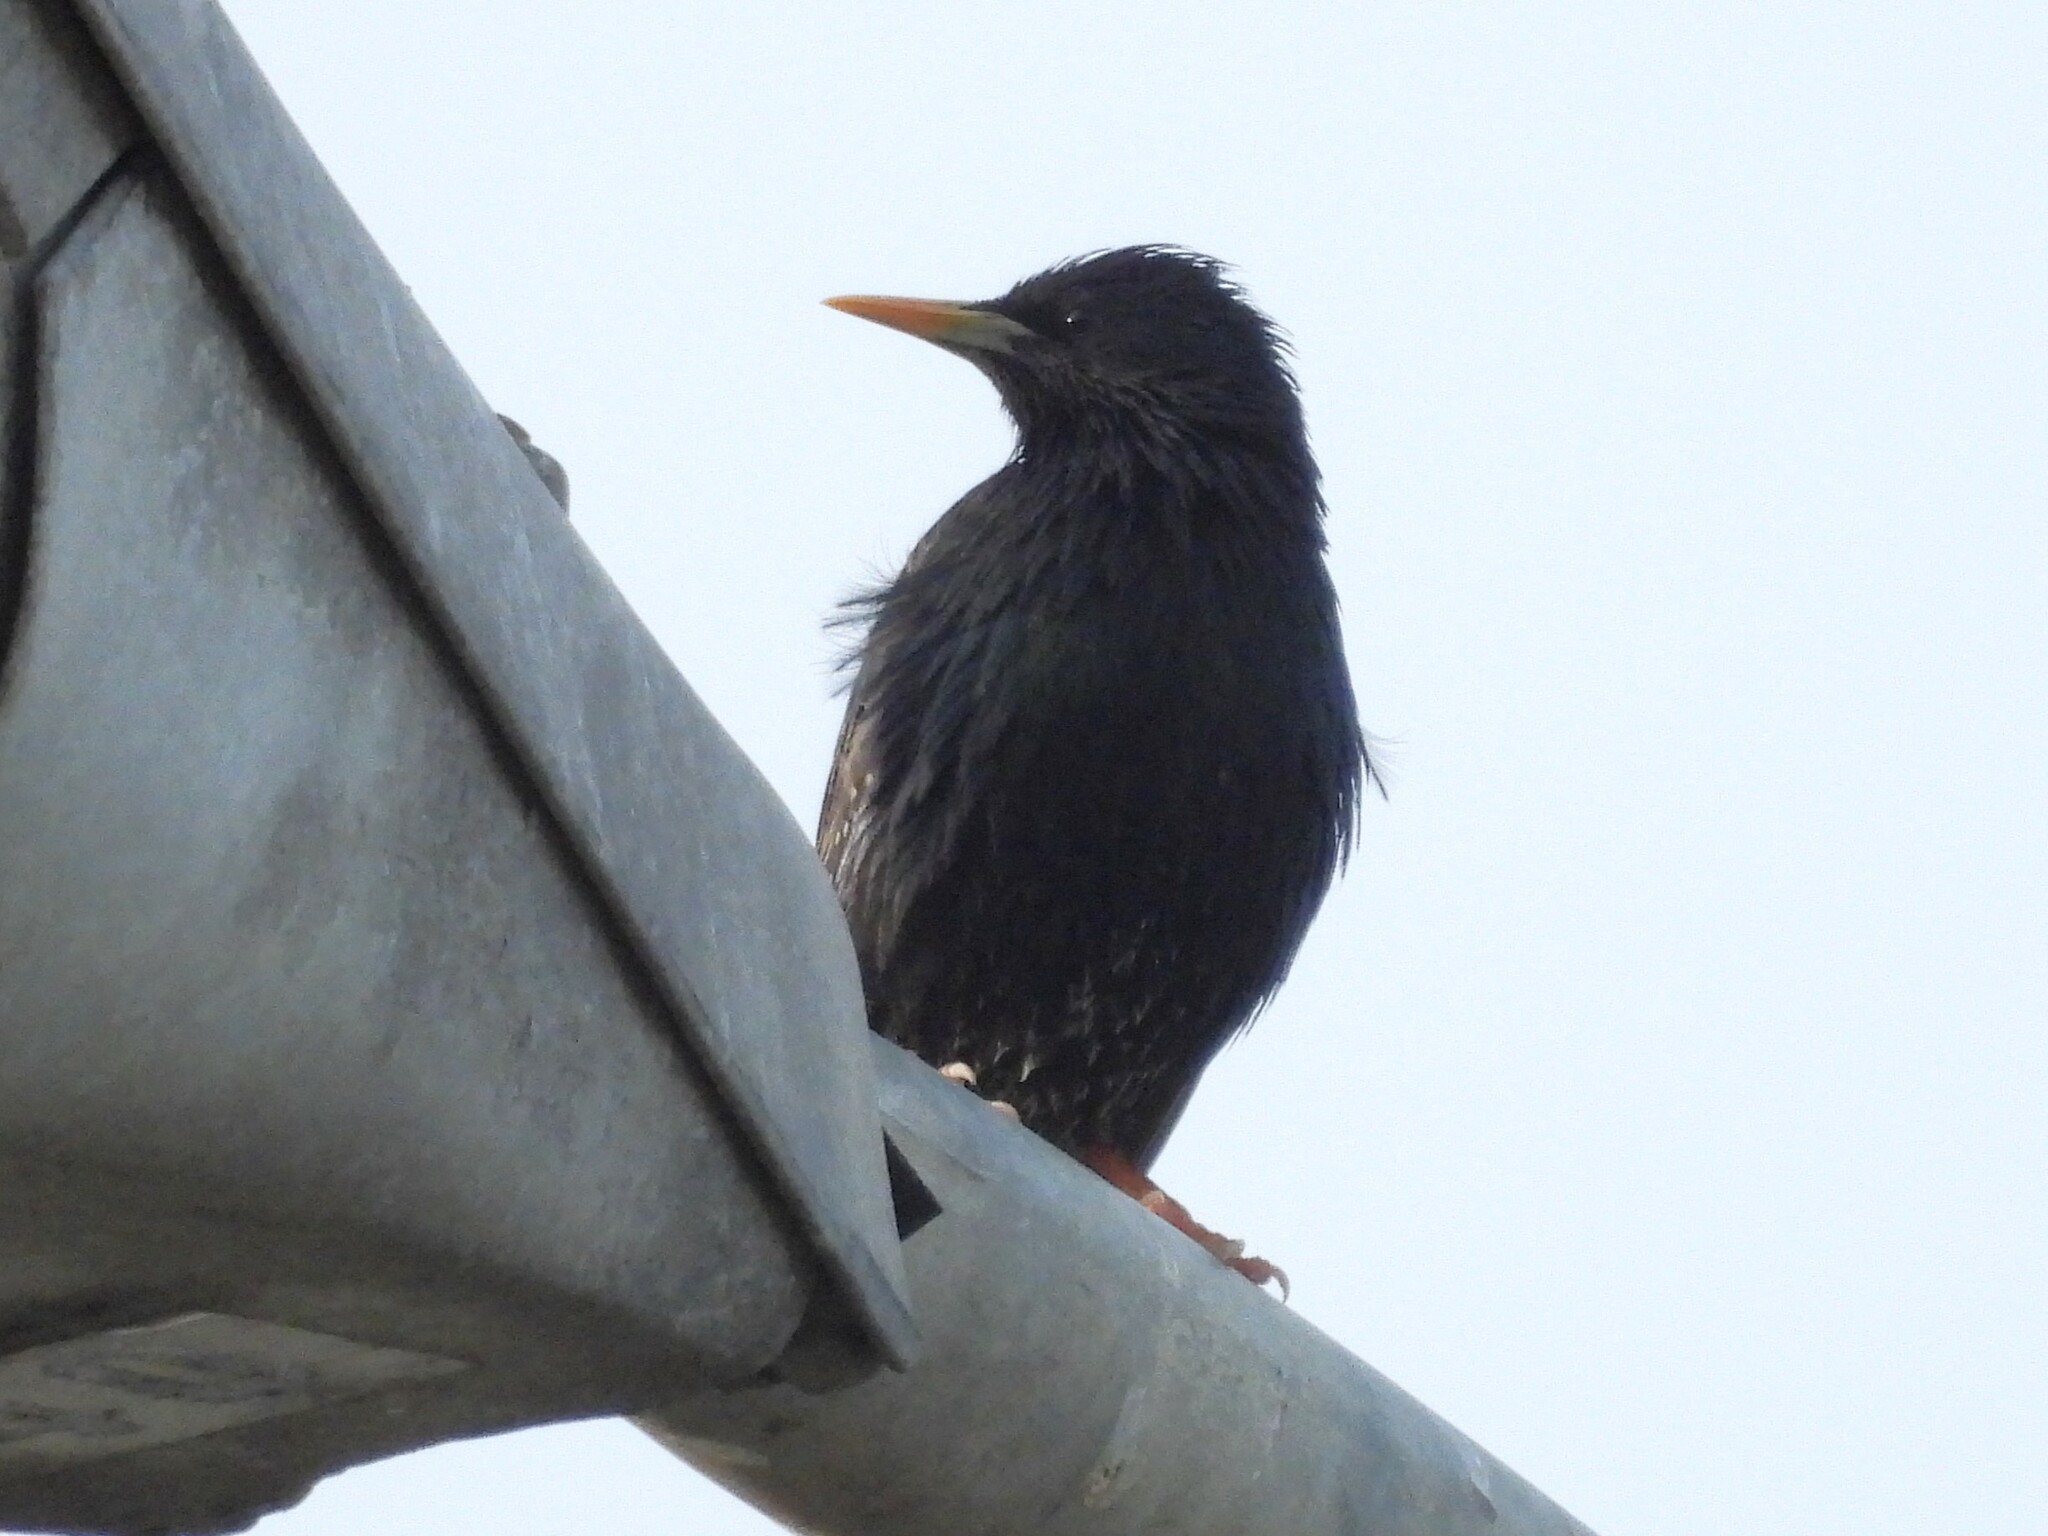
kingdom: Animalia
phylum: Chordata
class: Aves
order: Passeriformes
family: Sturnidae
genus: Sturnus
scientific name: Sturnus vulgaris
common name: Common starling
